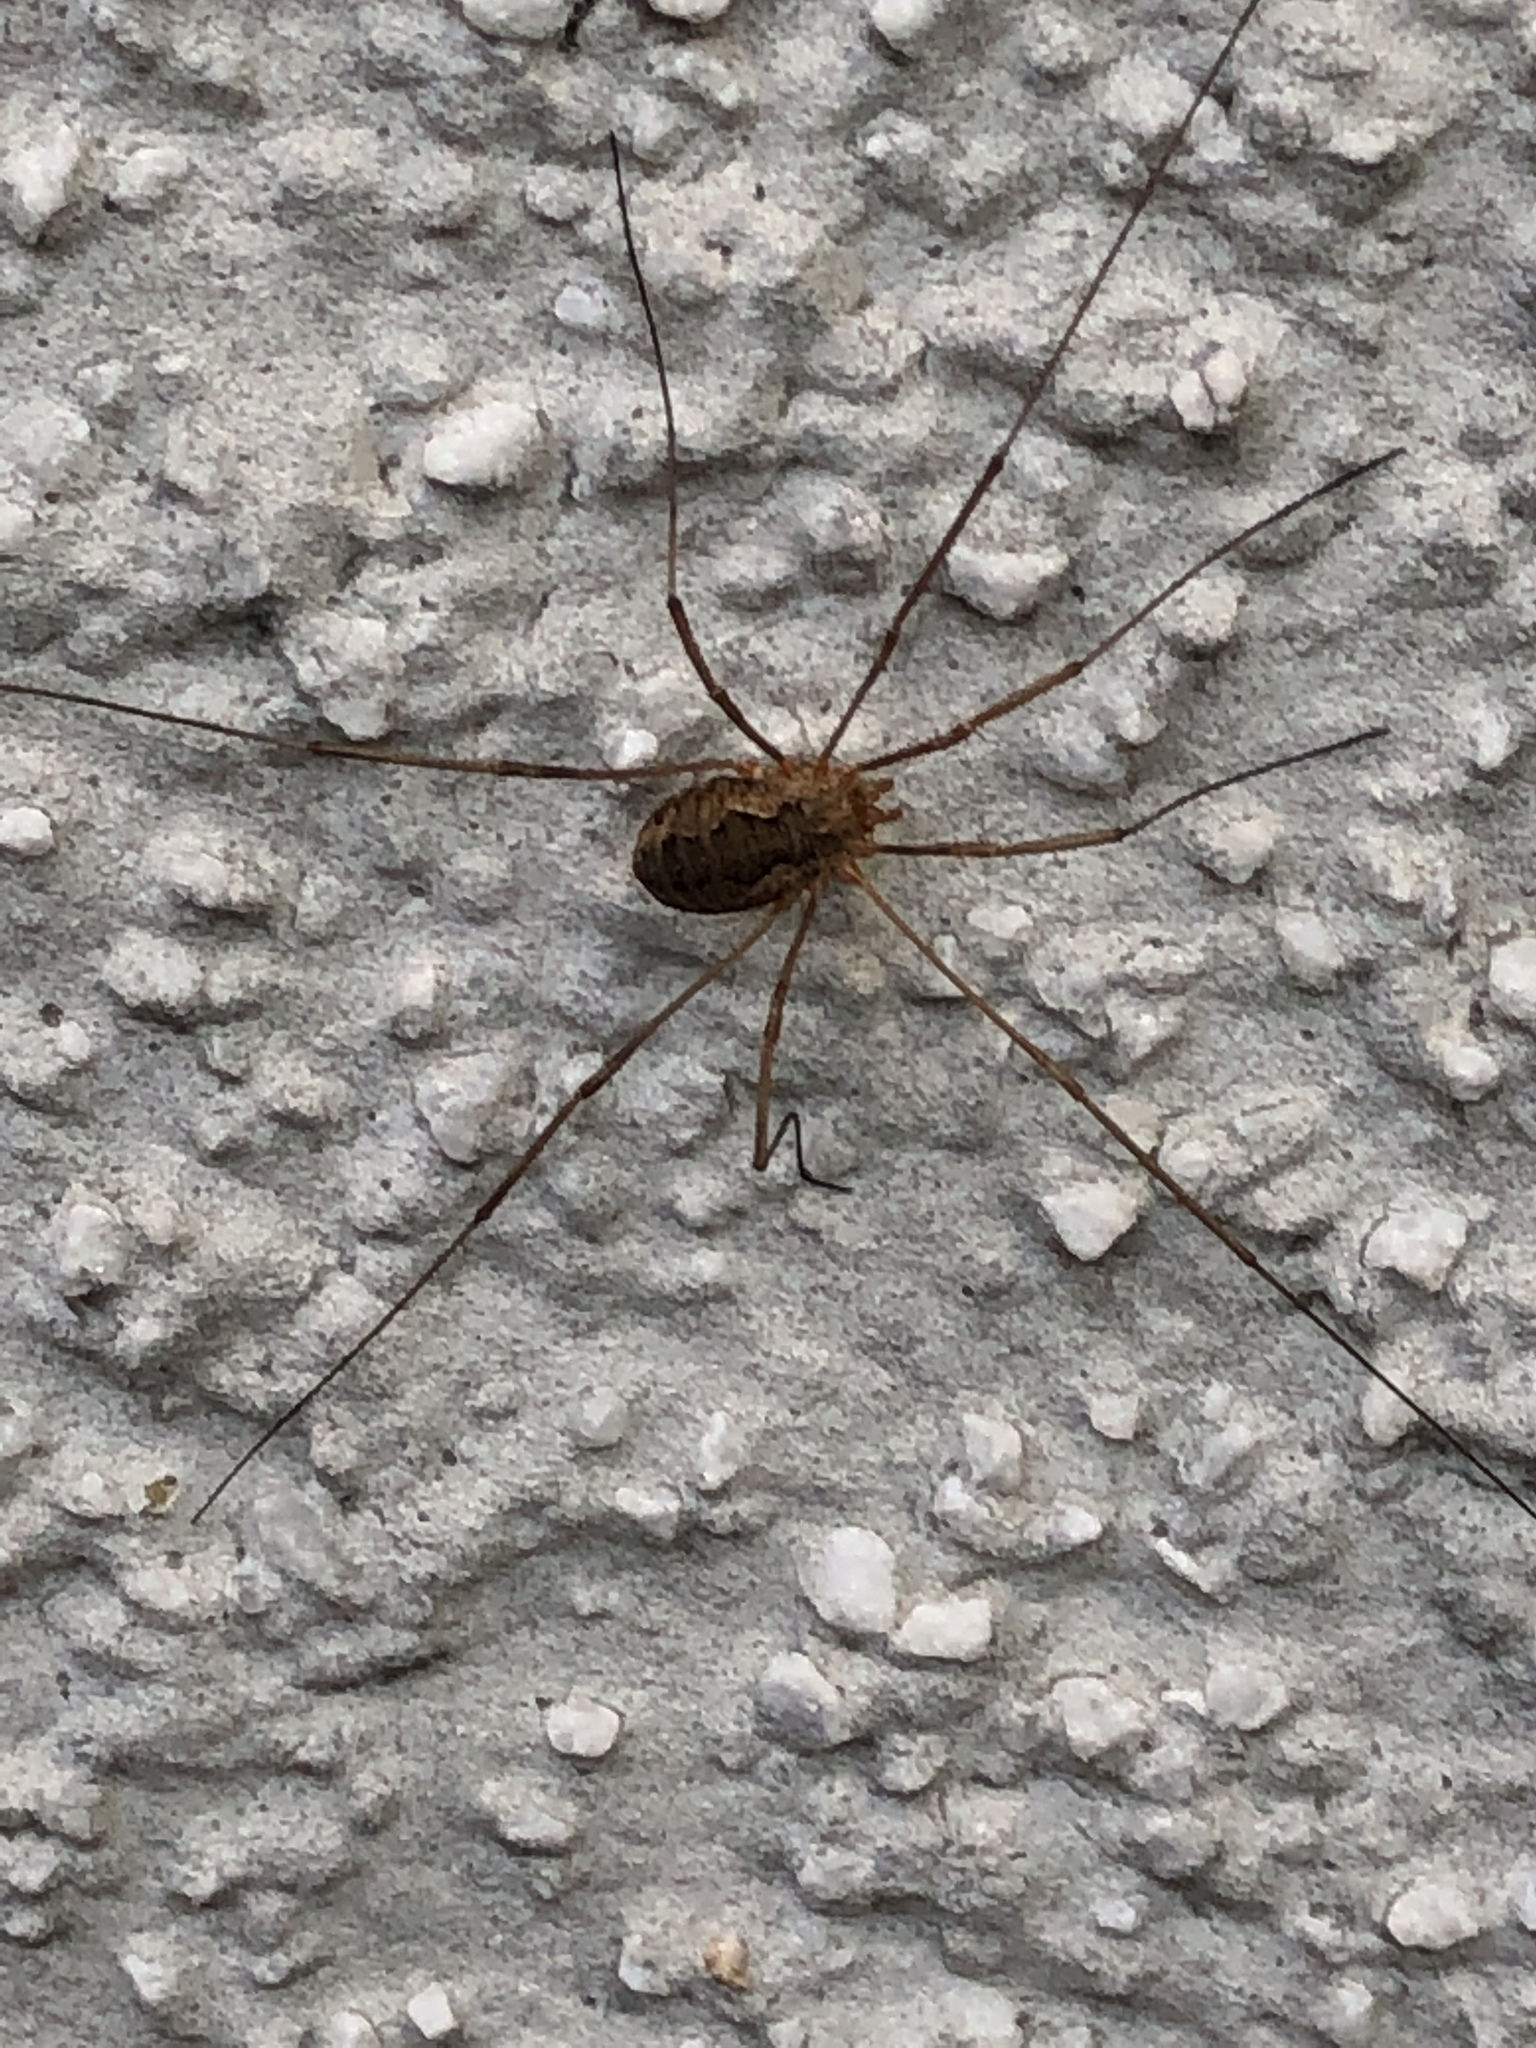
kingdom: Animalia
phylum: Arthropoda
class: Arachnida
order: Opiliones
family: Phalangiidae
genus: Phalangium
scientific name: Phalangium opilio
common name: Daddy longleg
